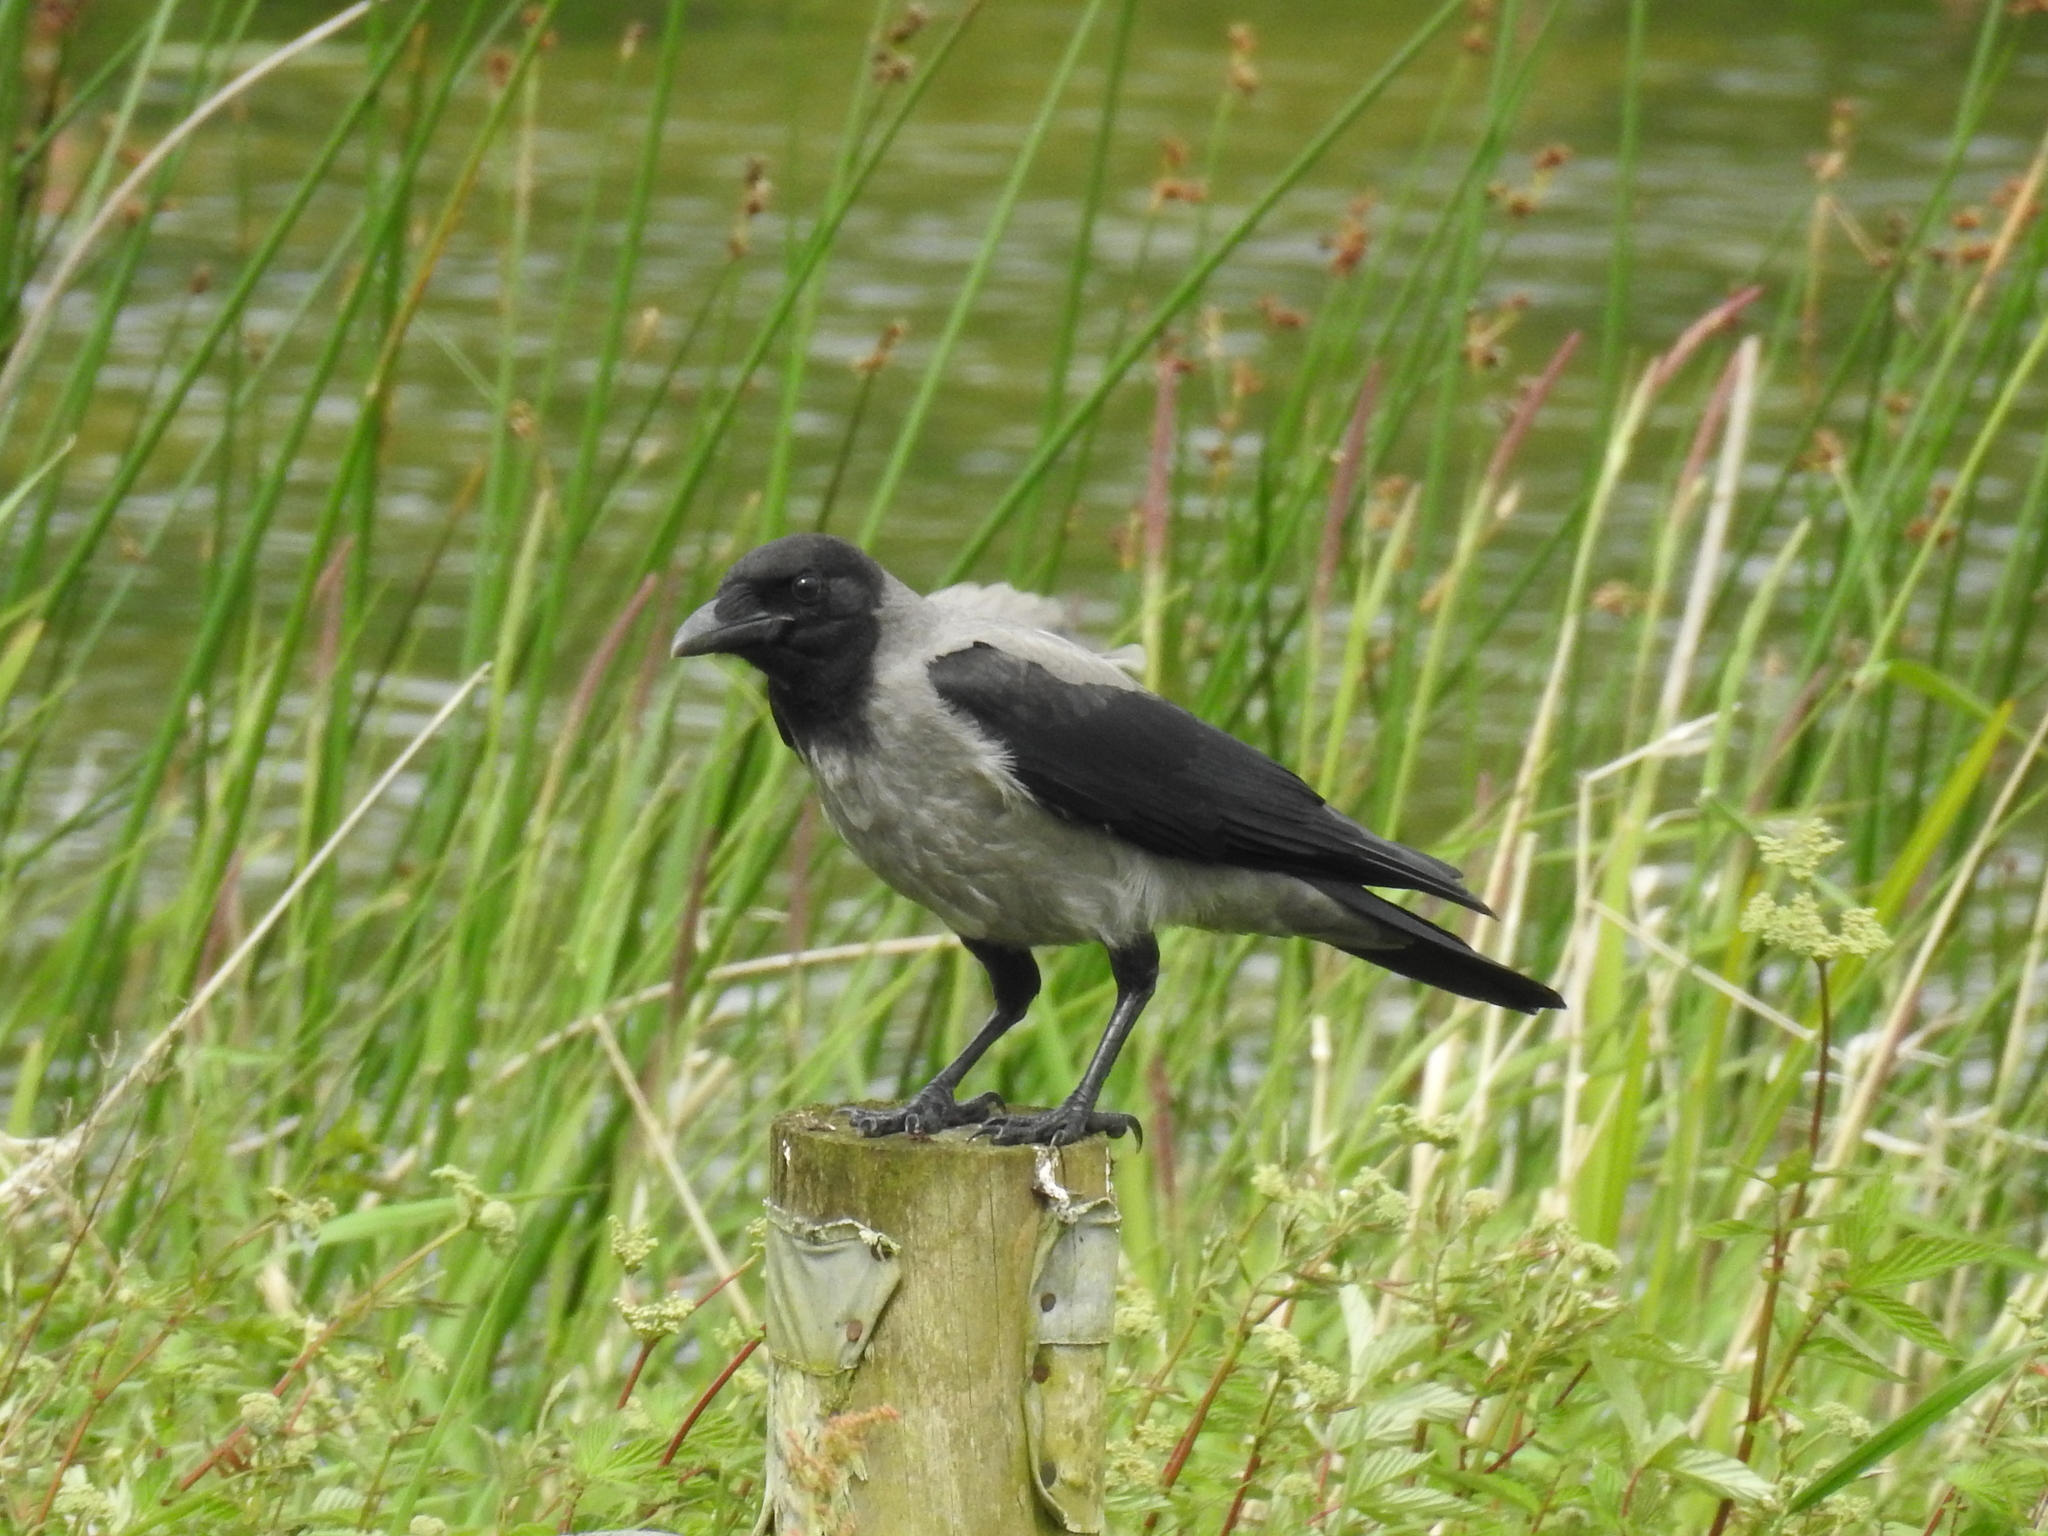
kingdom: Animalia
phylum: Chordata
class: Aves
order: Passeriformes
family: Corvidae
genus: Corvus
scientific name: Corvus cornix
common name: Hooded crow
